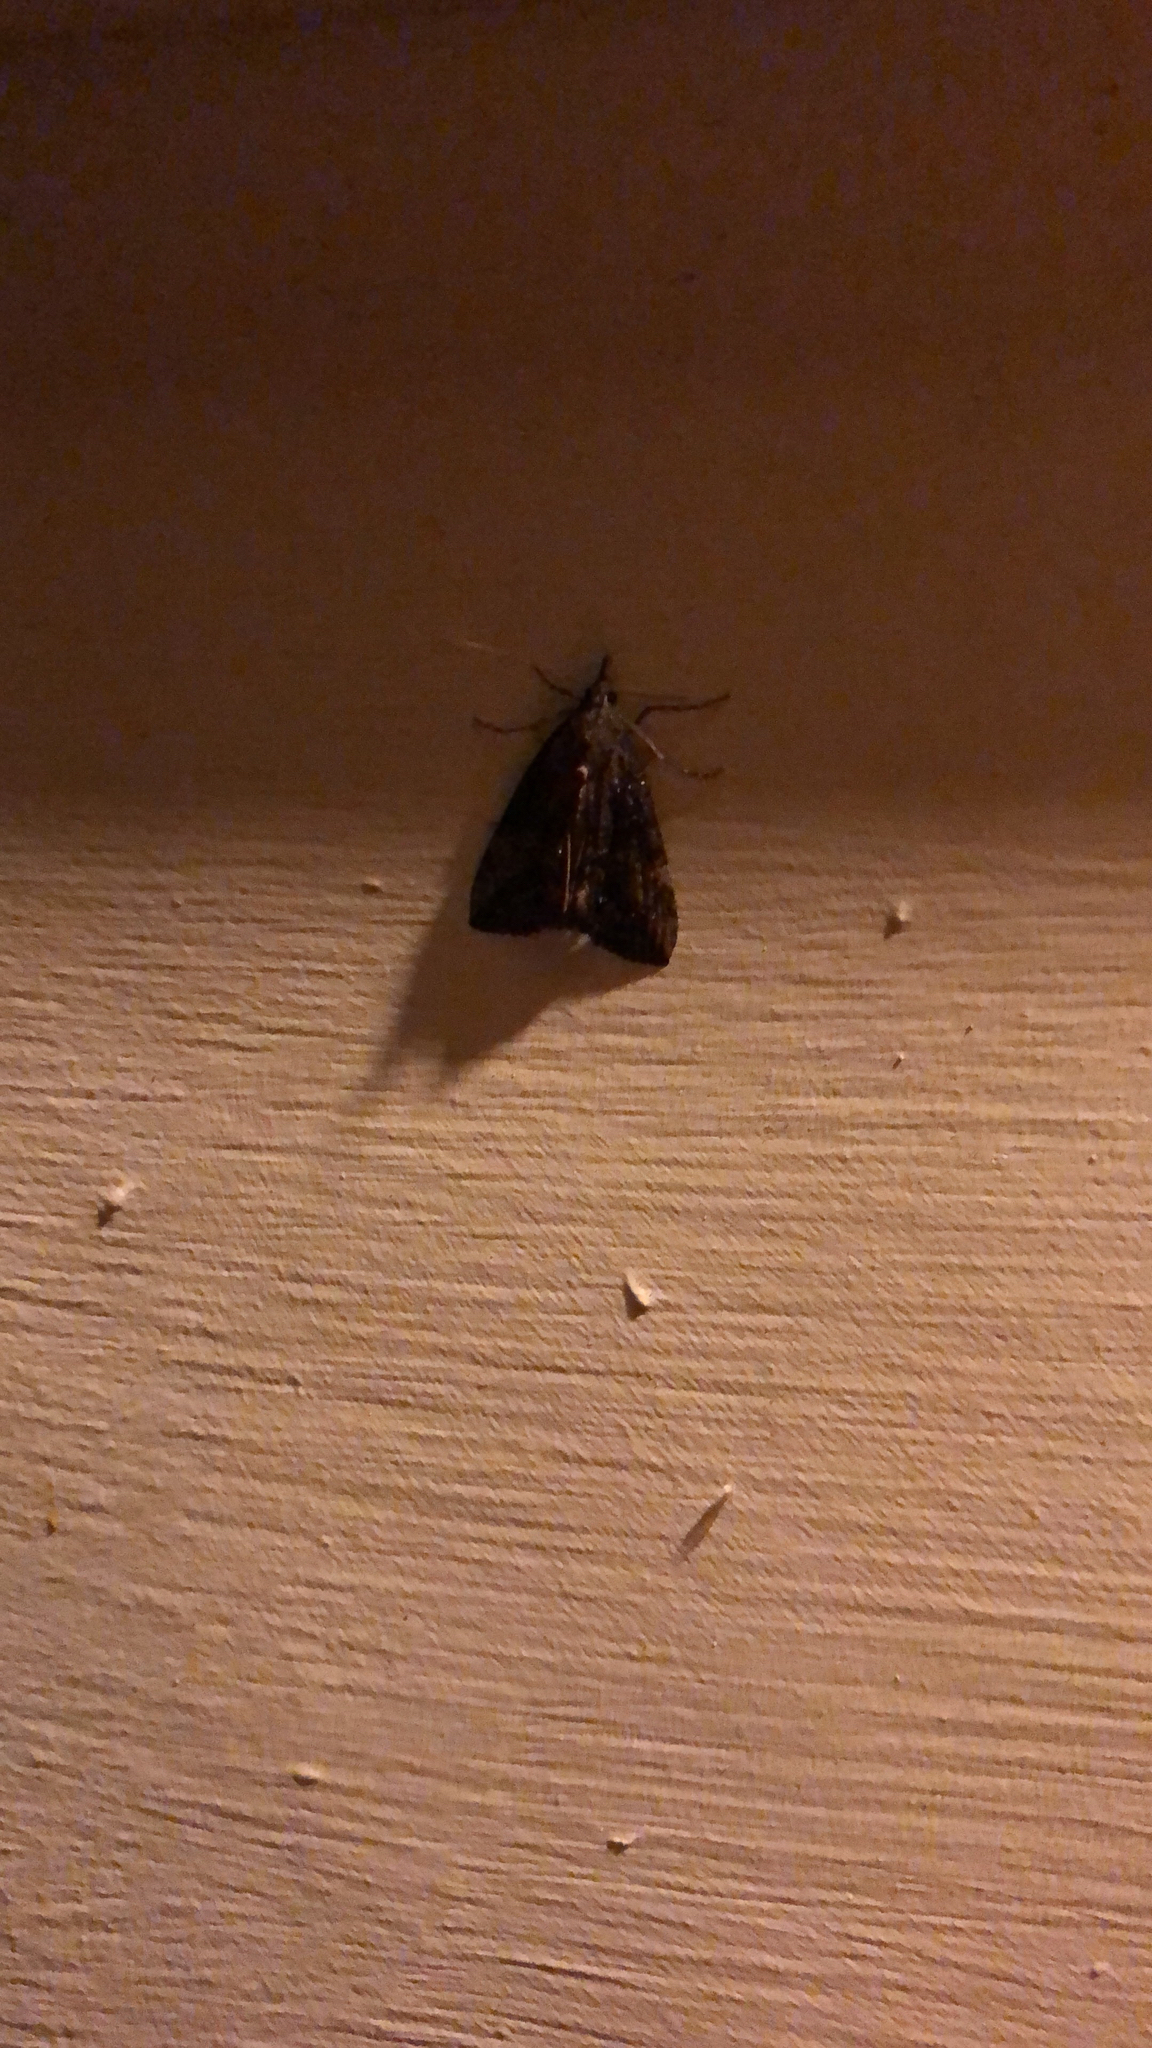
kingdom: Animalia
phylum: Arthropoda
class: Insecta
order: Lepidoptera
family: Erebidae
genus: Hypena
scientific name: Hypena scabra
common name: Green cloverworm
